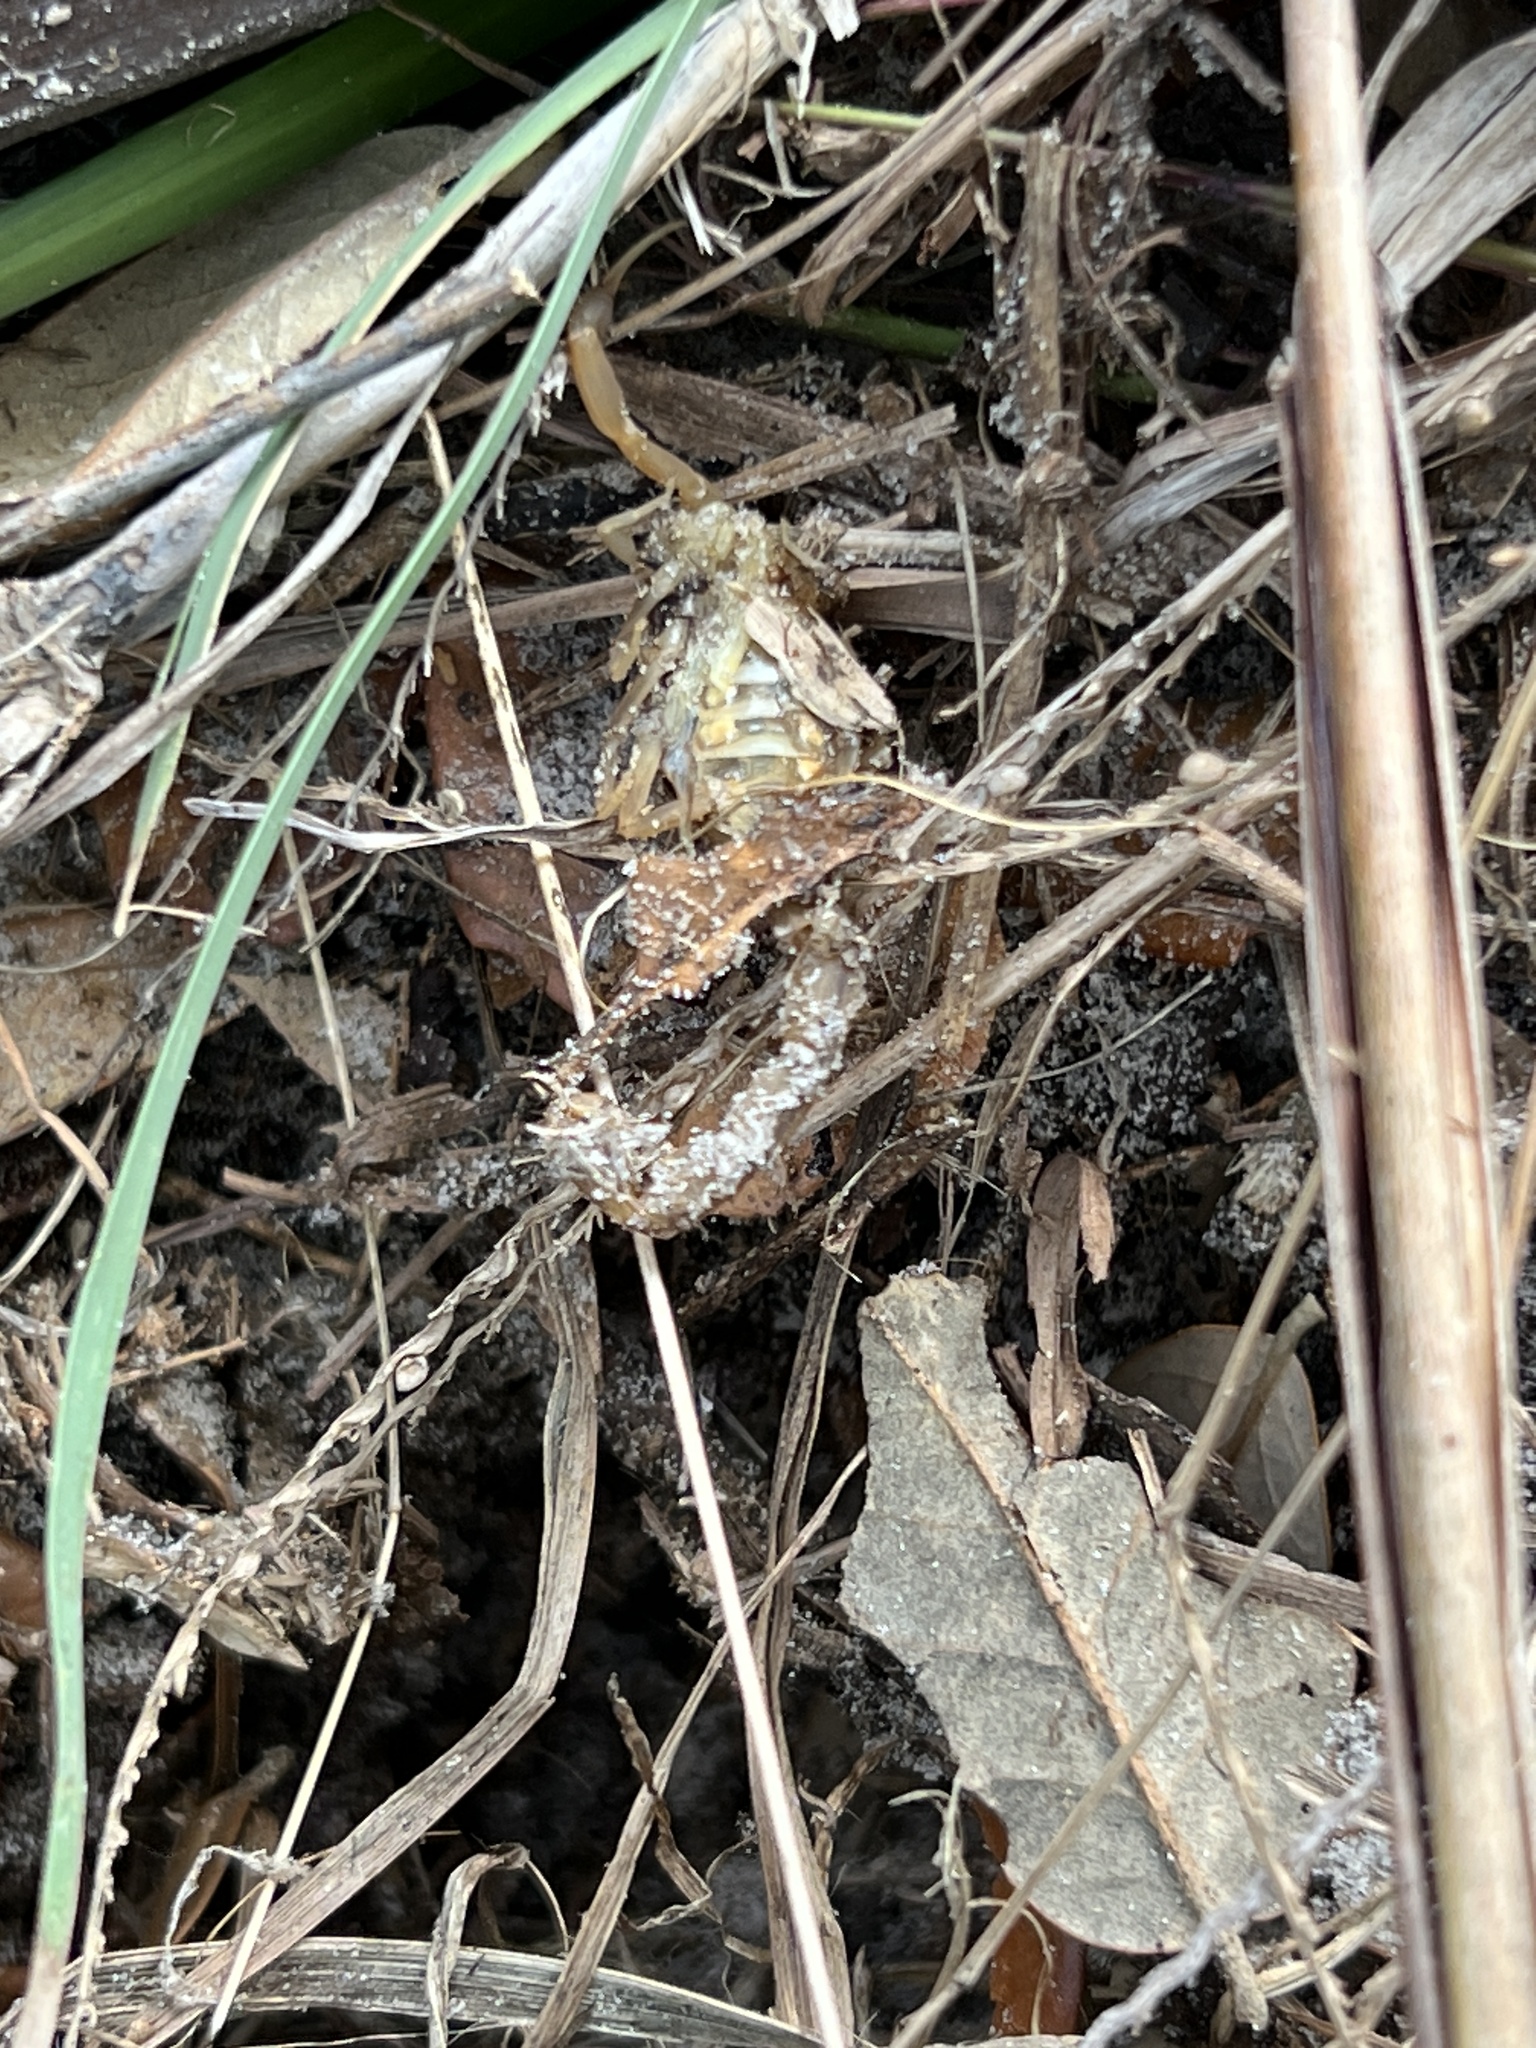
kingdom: Animalia
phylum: Arthropoda
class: Arachnida
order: Scorpiones
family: Buthidae
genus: Centruroides
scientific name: Centruroides vittatus
